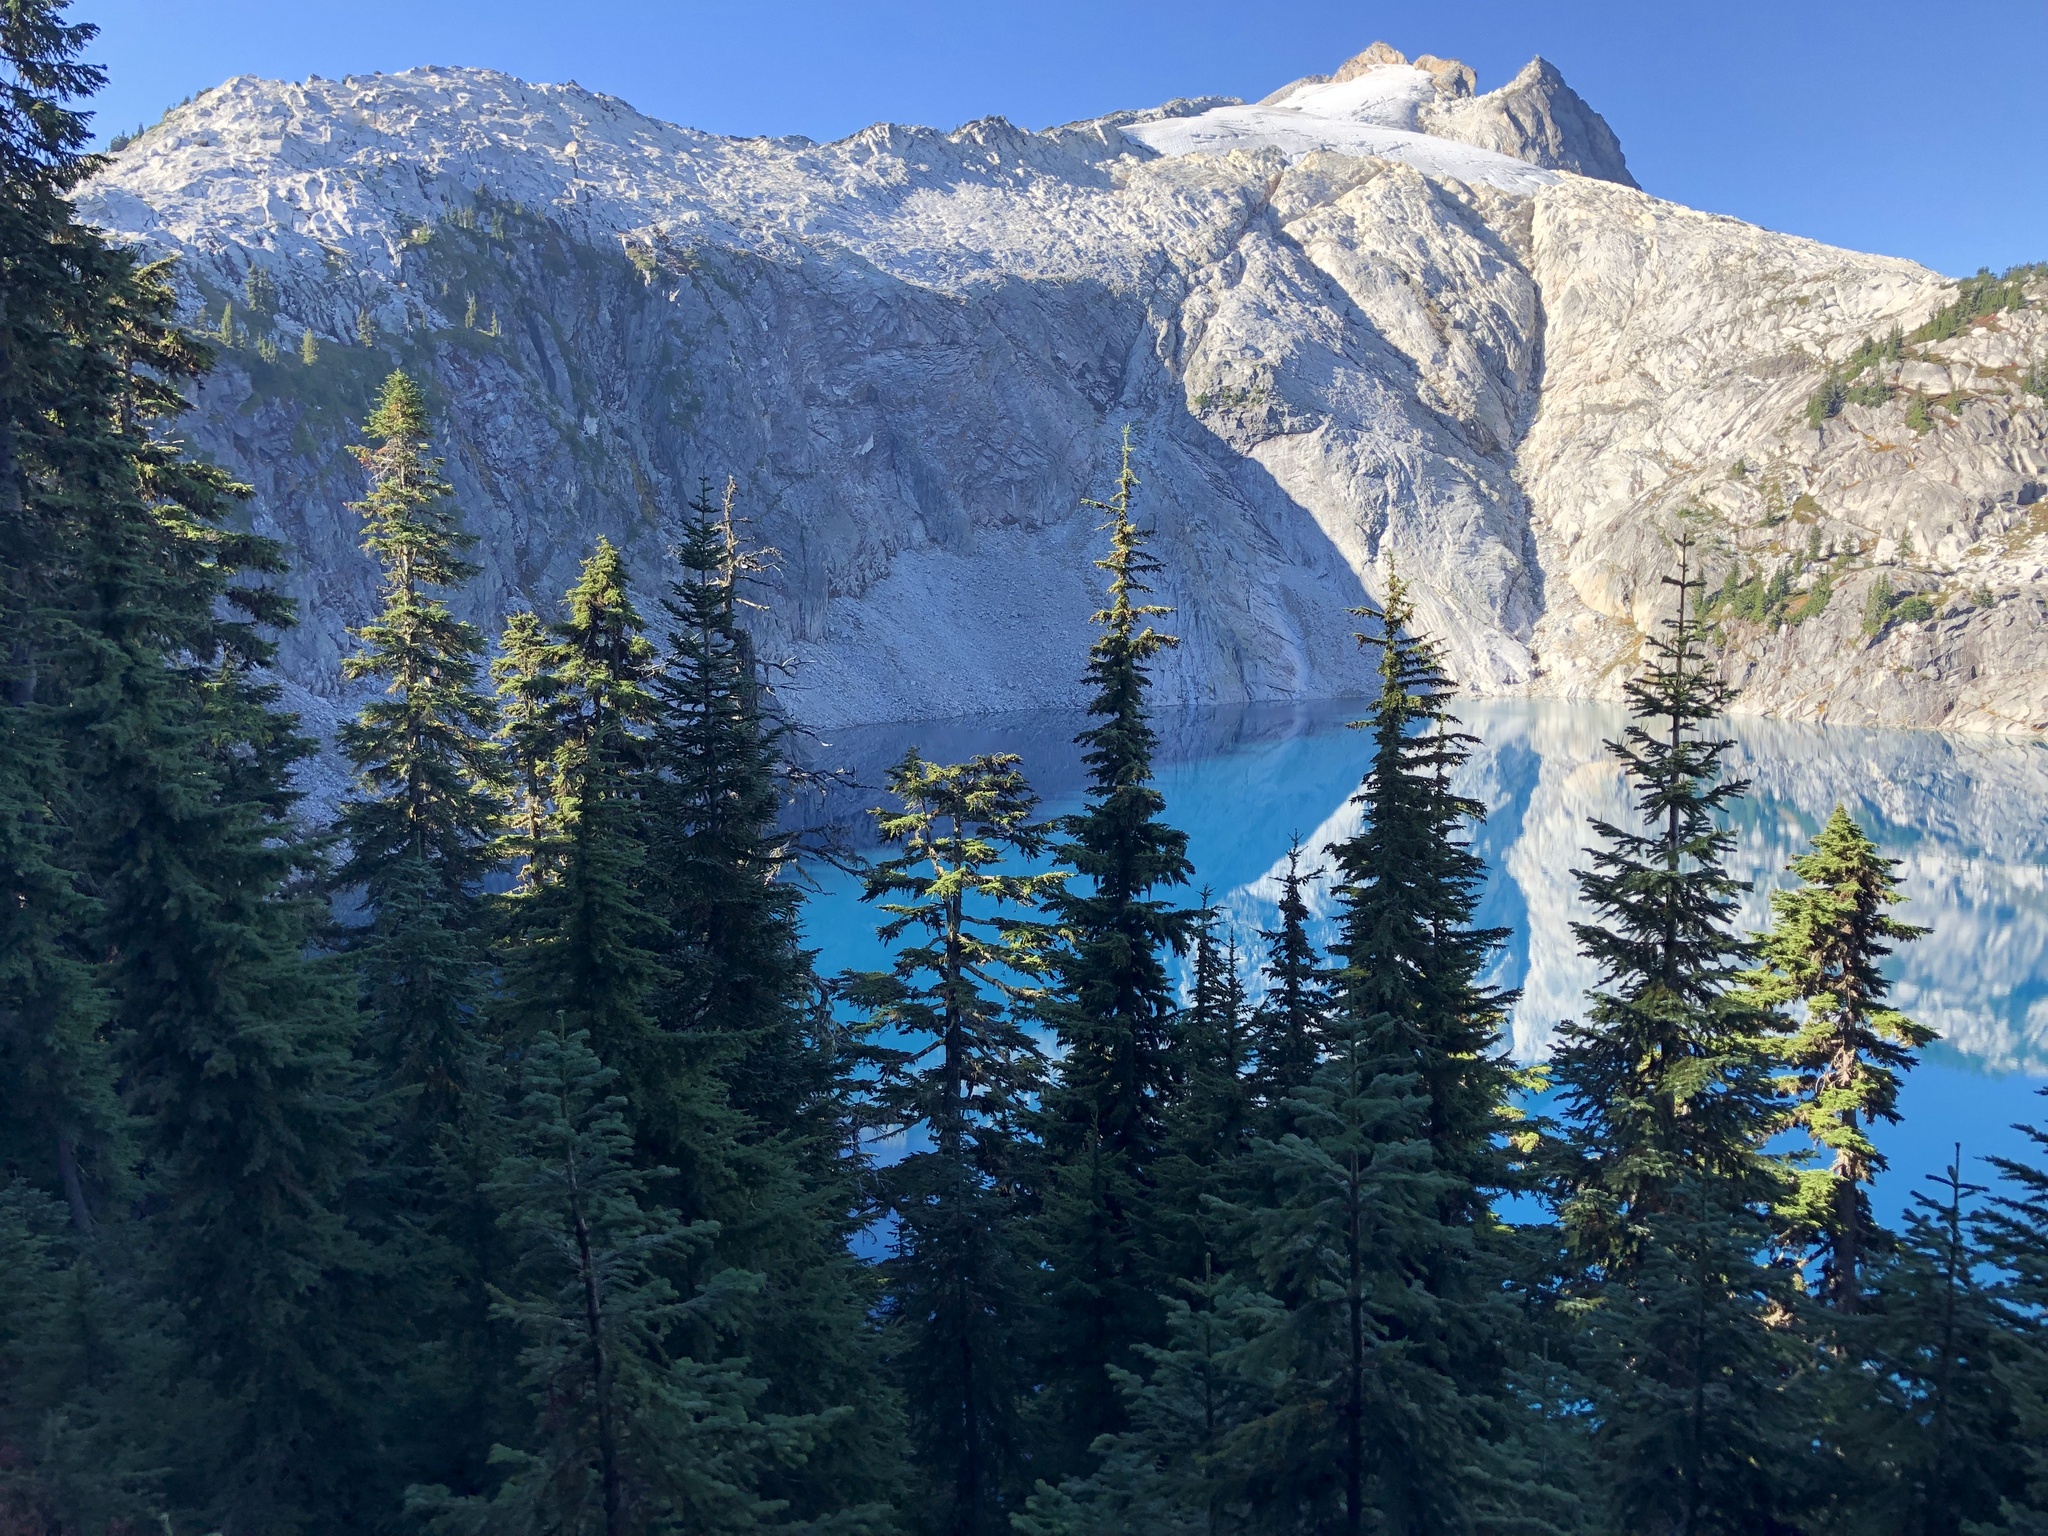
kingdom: Plantae
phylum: Tracheophyta
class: Pinopsida
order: Pinales
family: Pinaceae
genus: Abies
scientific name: Abies amabilis
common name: Pacific silver fir
